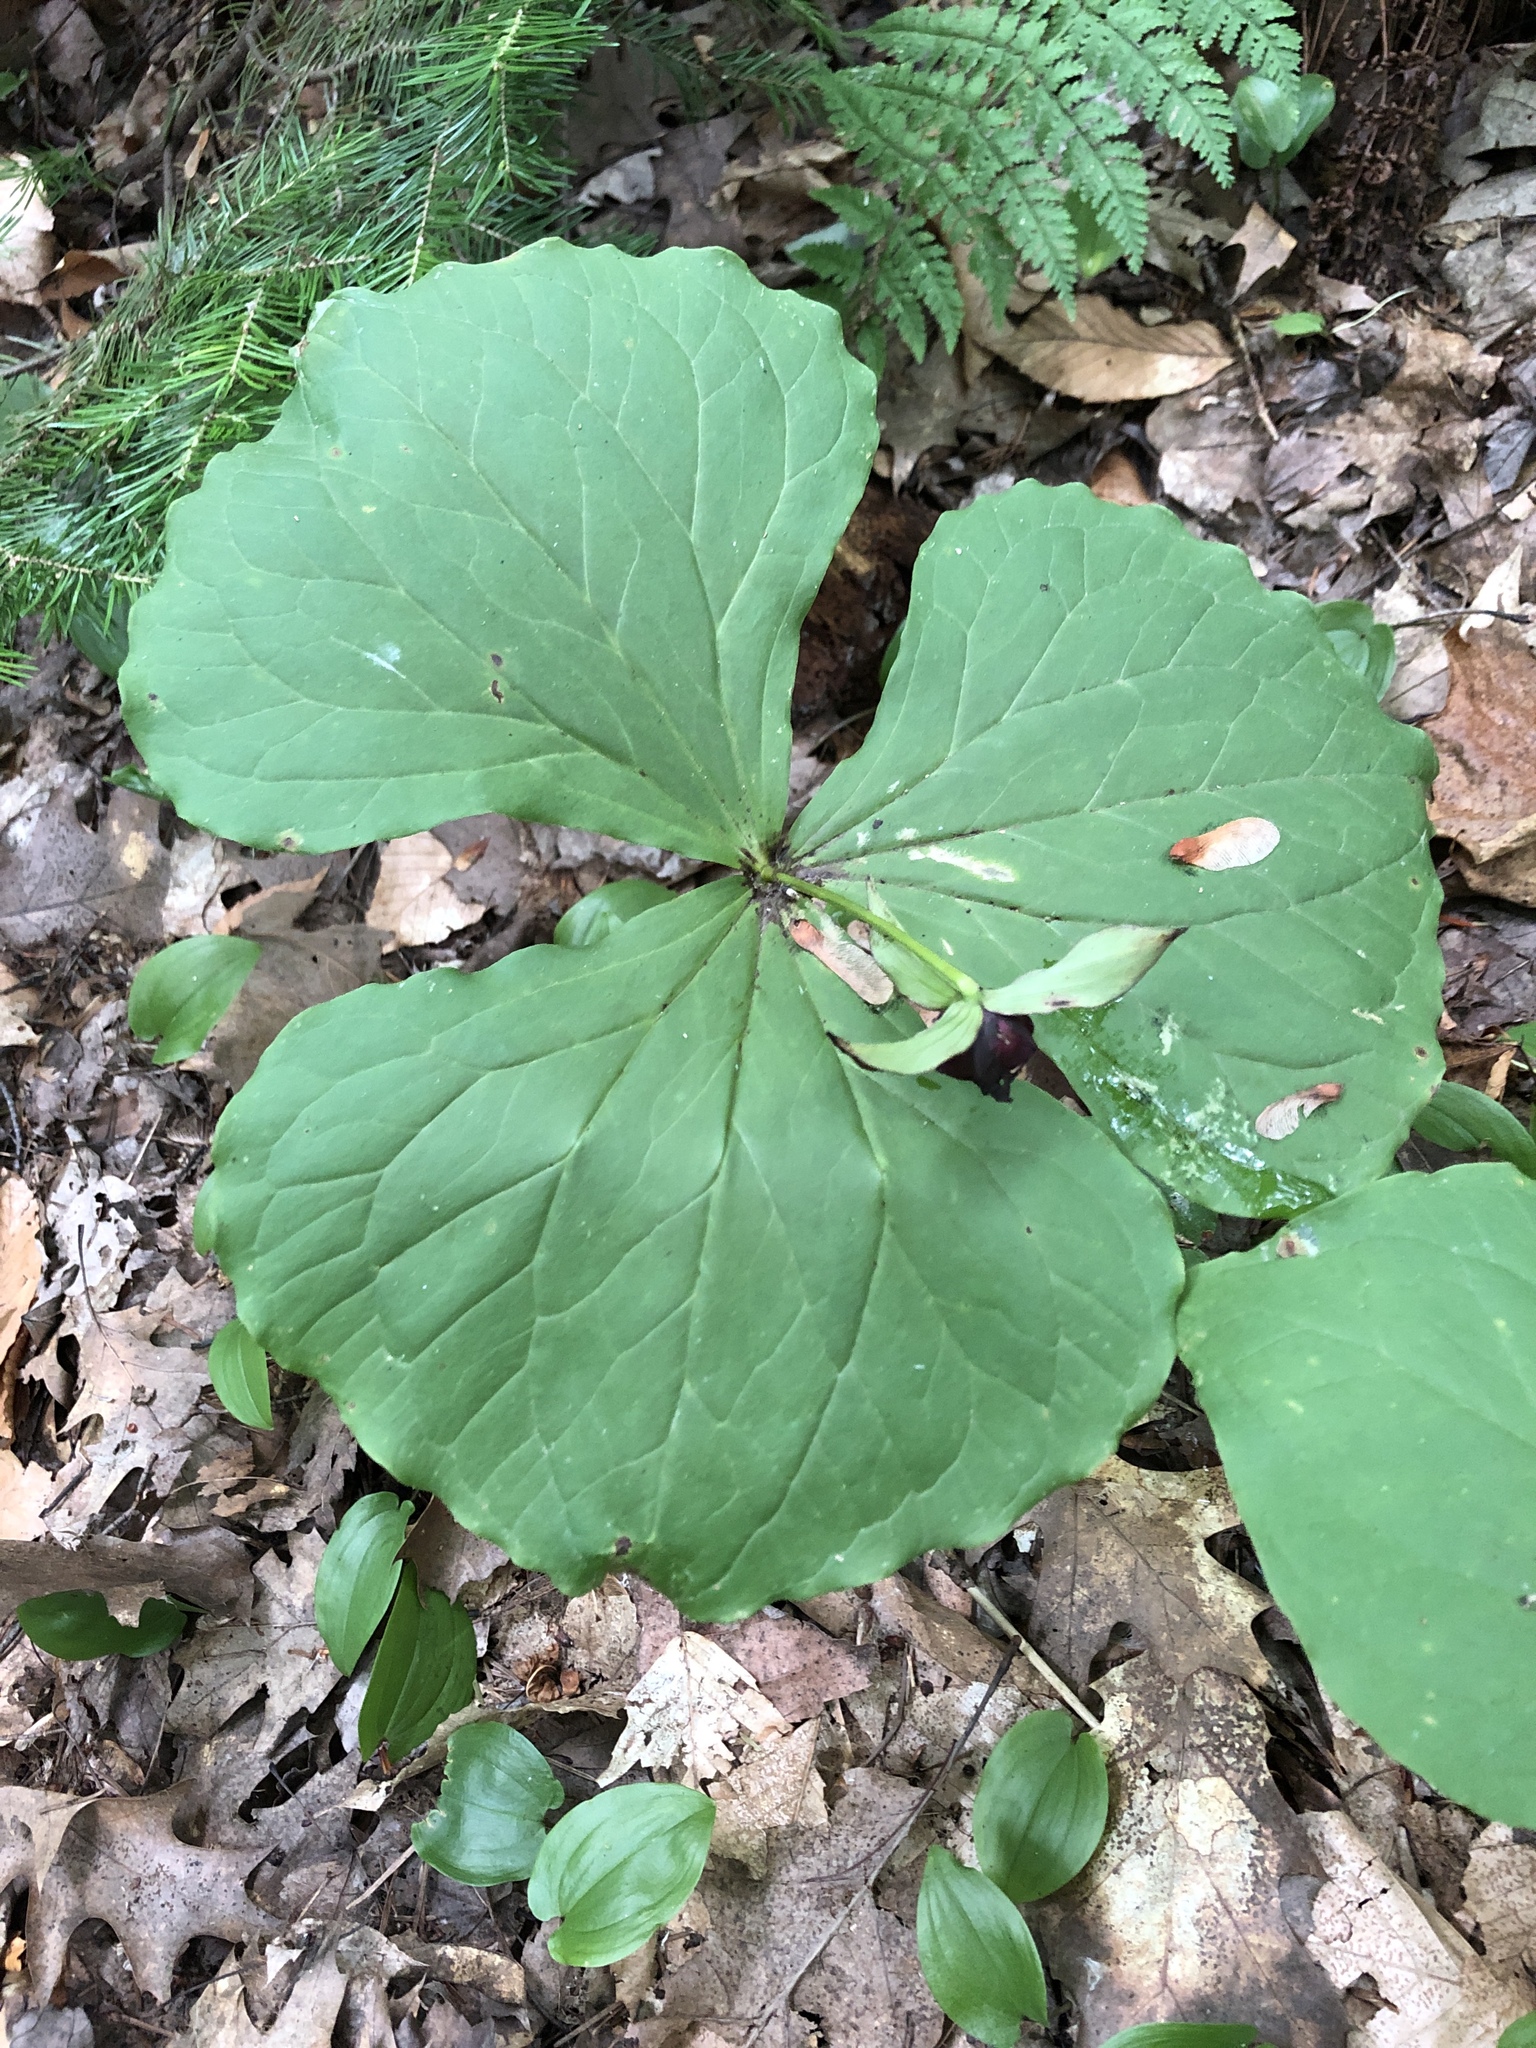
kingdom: Plantae
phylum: Tracheophyta
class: Liliopsida
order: Liliales
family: Melanthiaceae
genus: Trillium
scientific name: Trillium erectum
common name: Purple trillium
